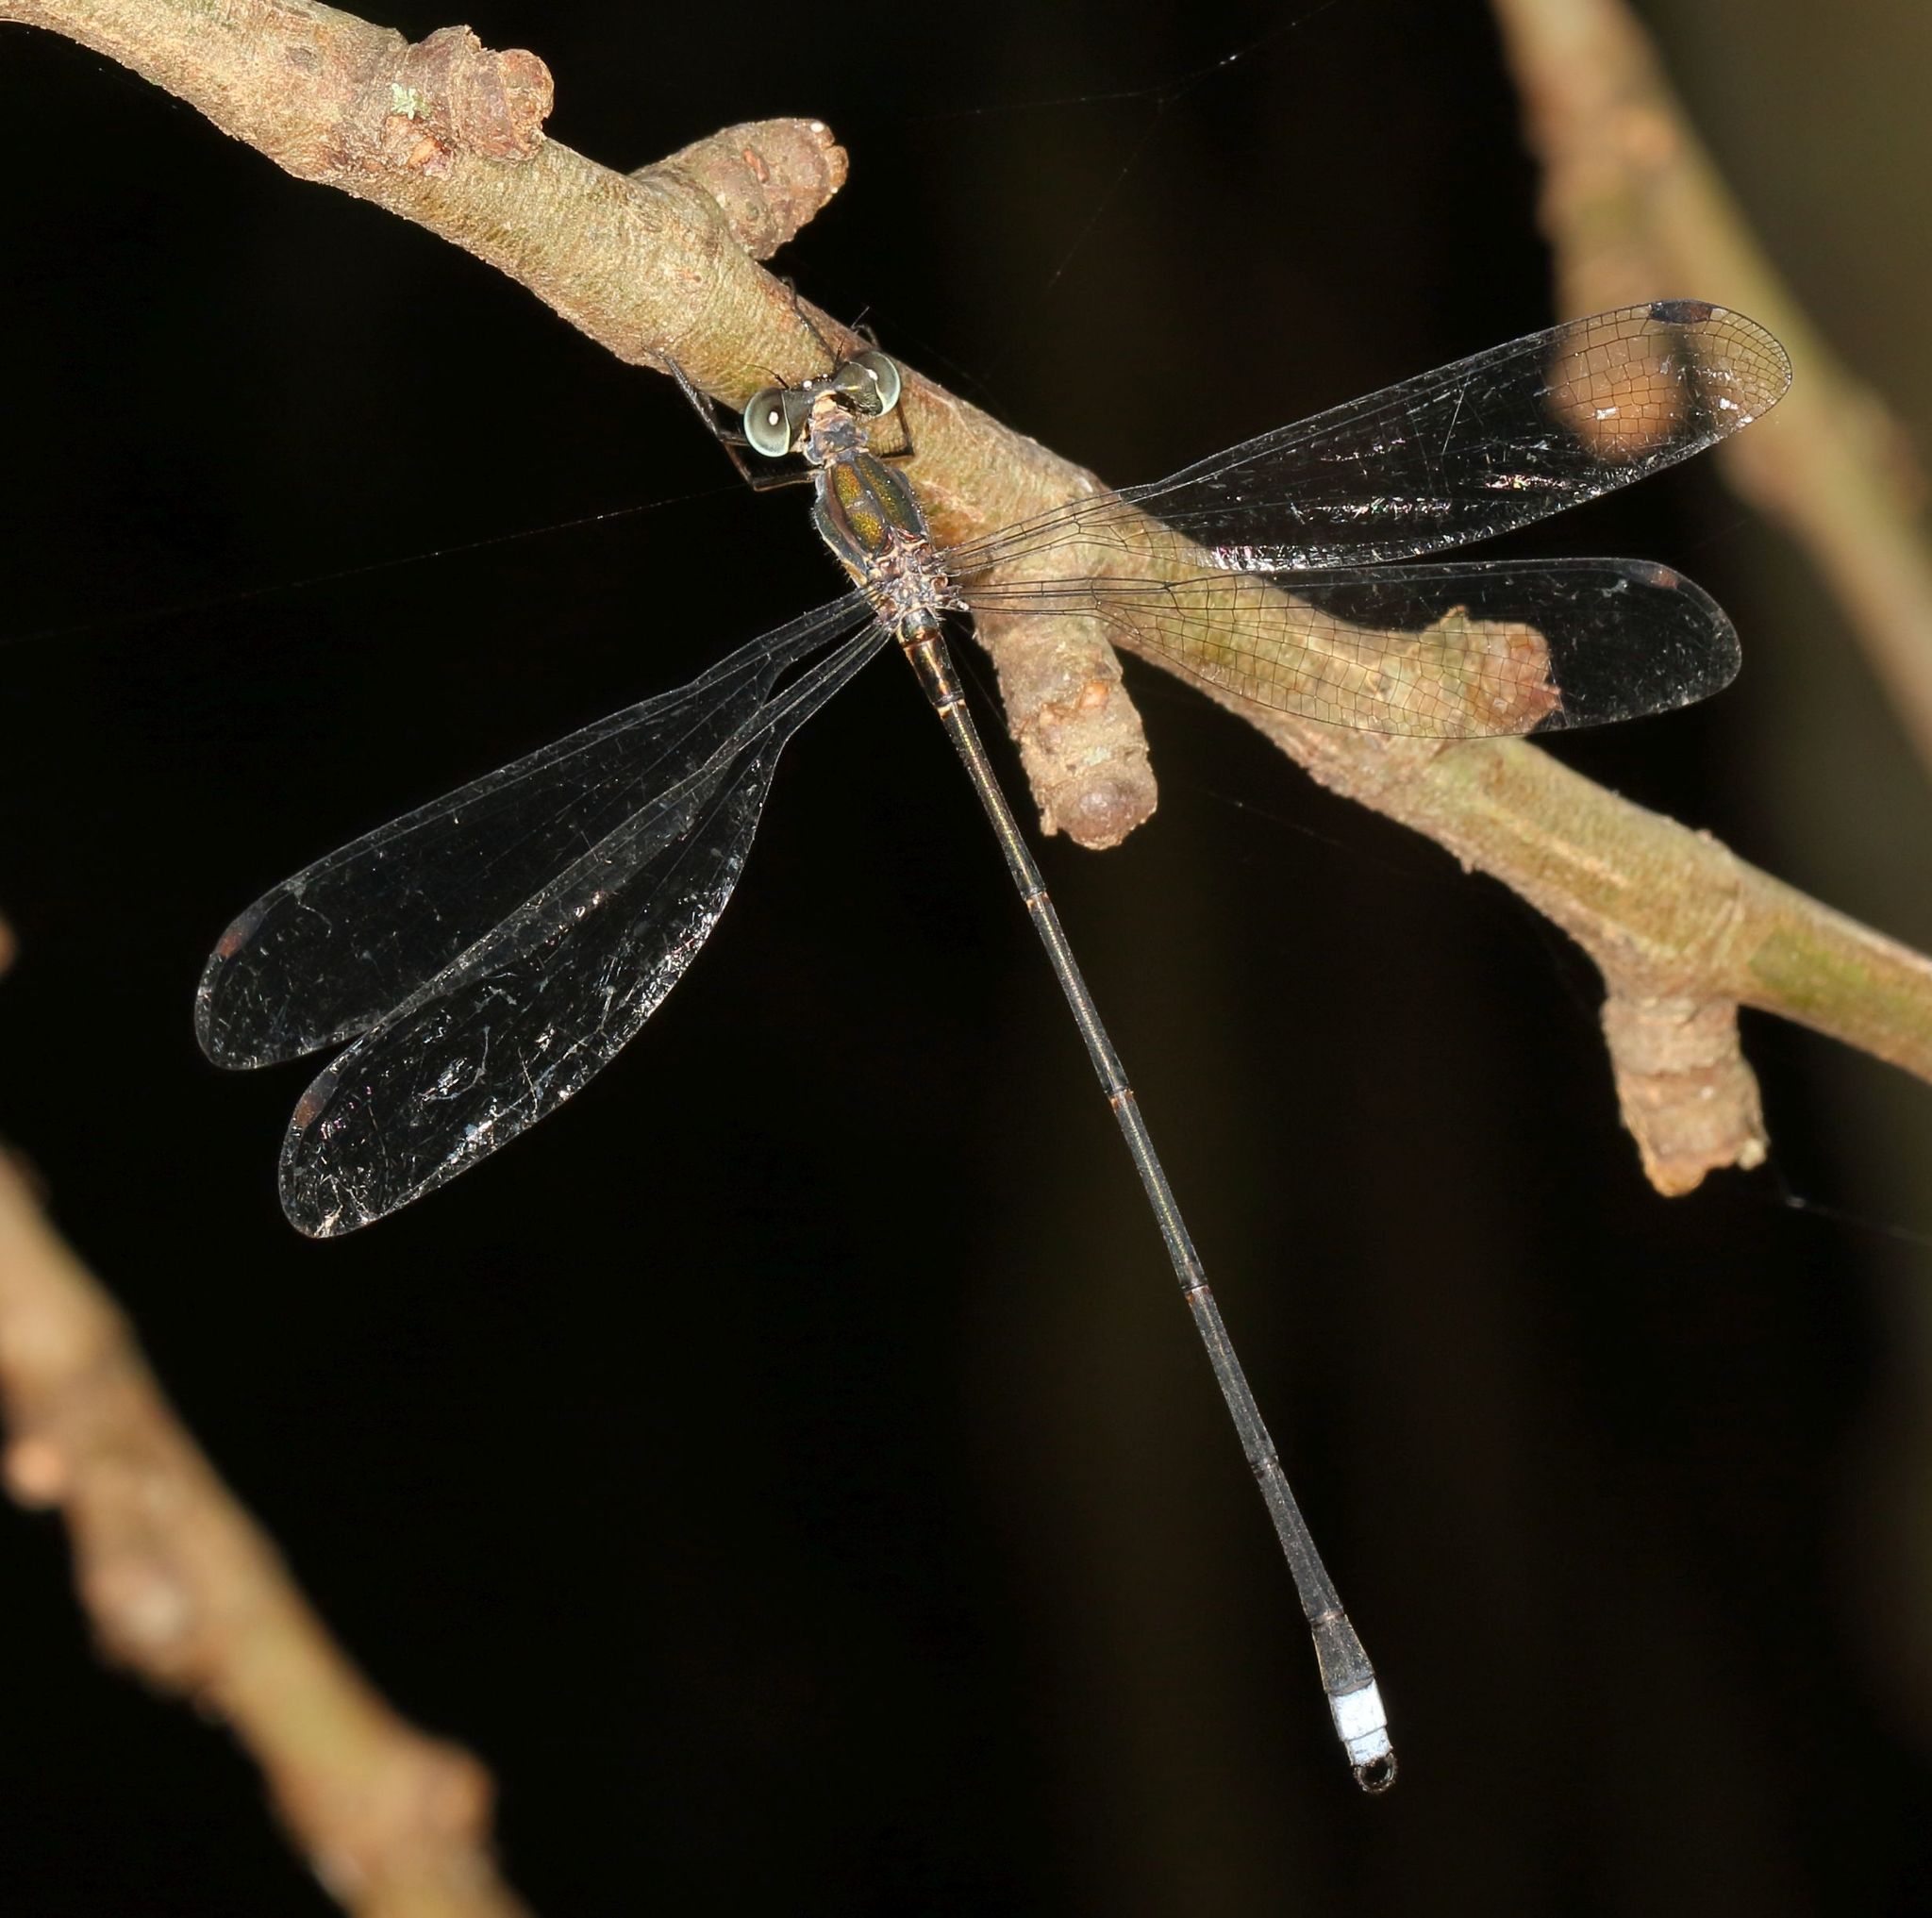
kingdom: Animalia
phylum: Arthropoda
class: Insecta
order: Odonata
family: Synlestidae
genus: Chlorolestes
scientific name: Chlorolestes tessellatus
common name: Forest malachite
